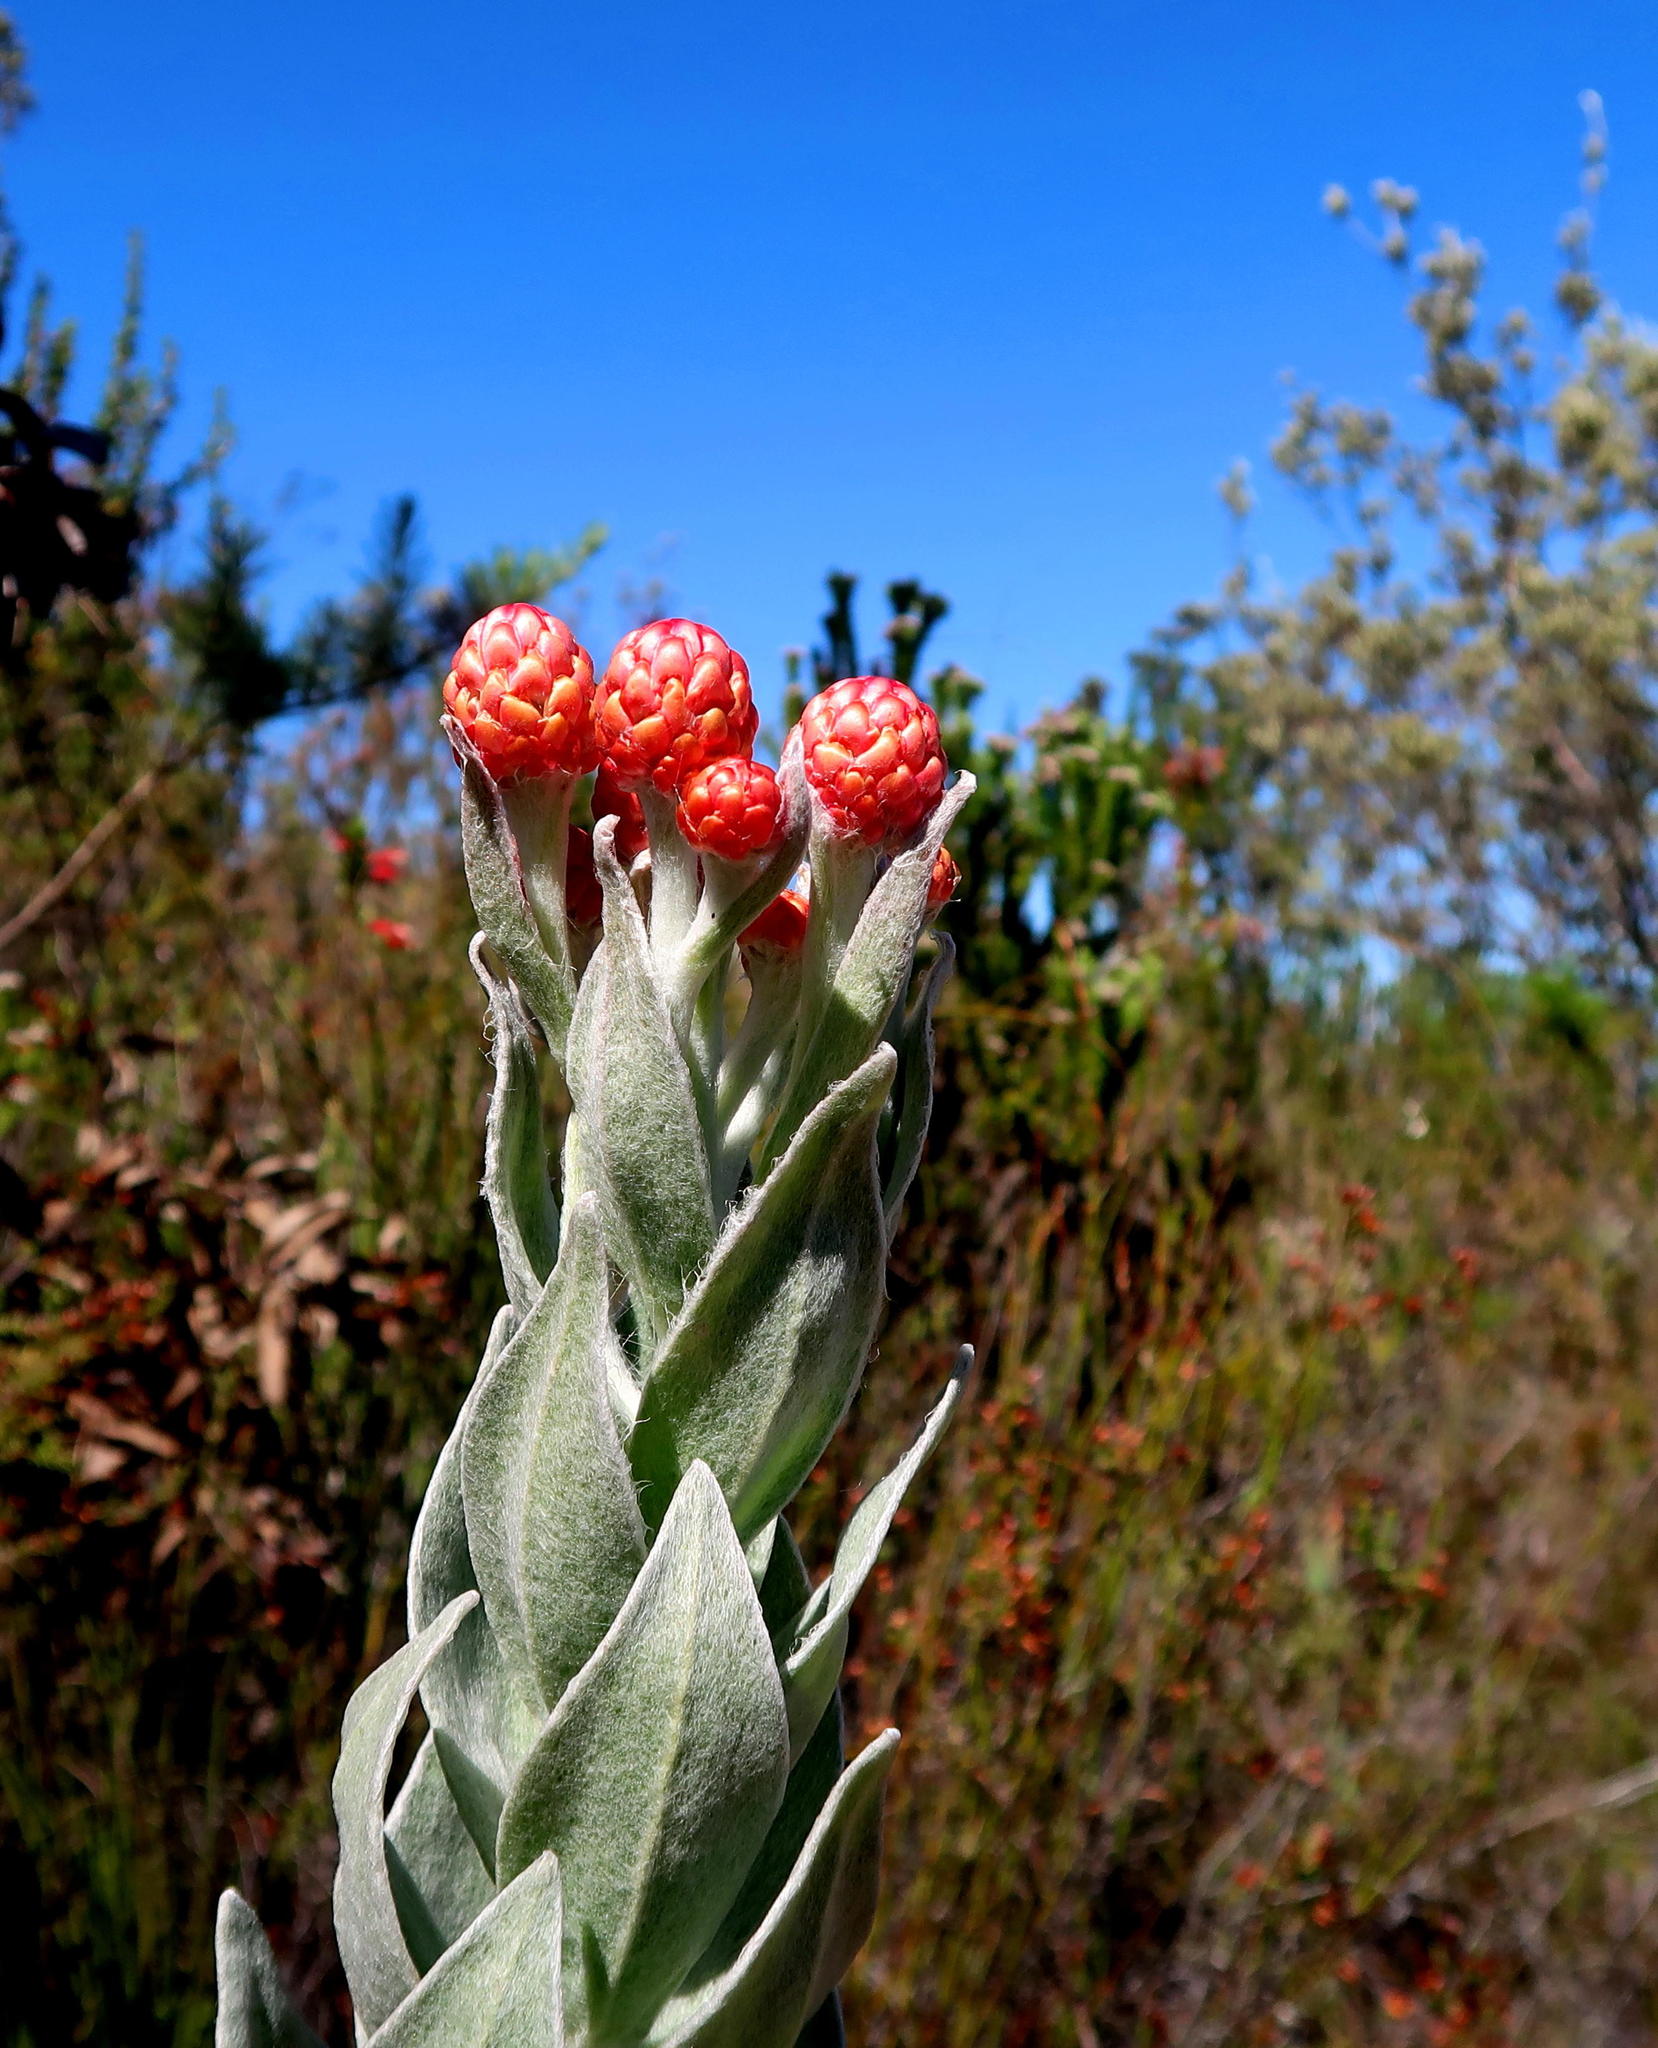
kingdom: Plantae
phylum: Tracheophyta
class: Magnoliopsida
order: Asterales
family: Asteraceae
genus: Syncarpha
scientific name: Syncarpha eximia
